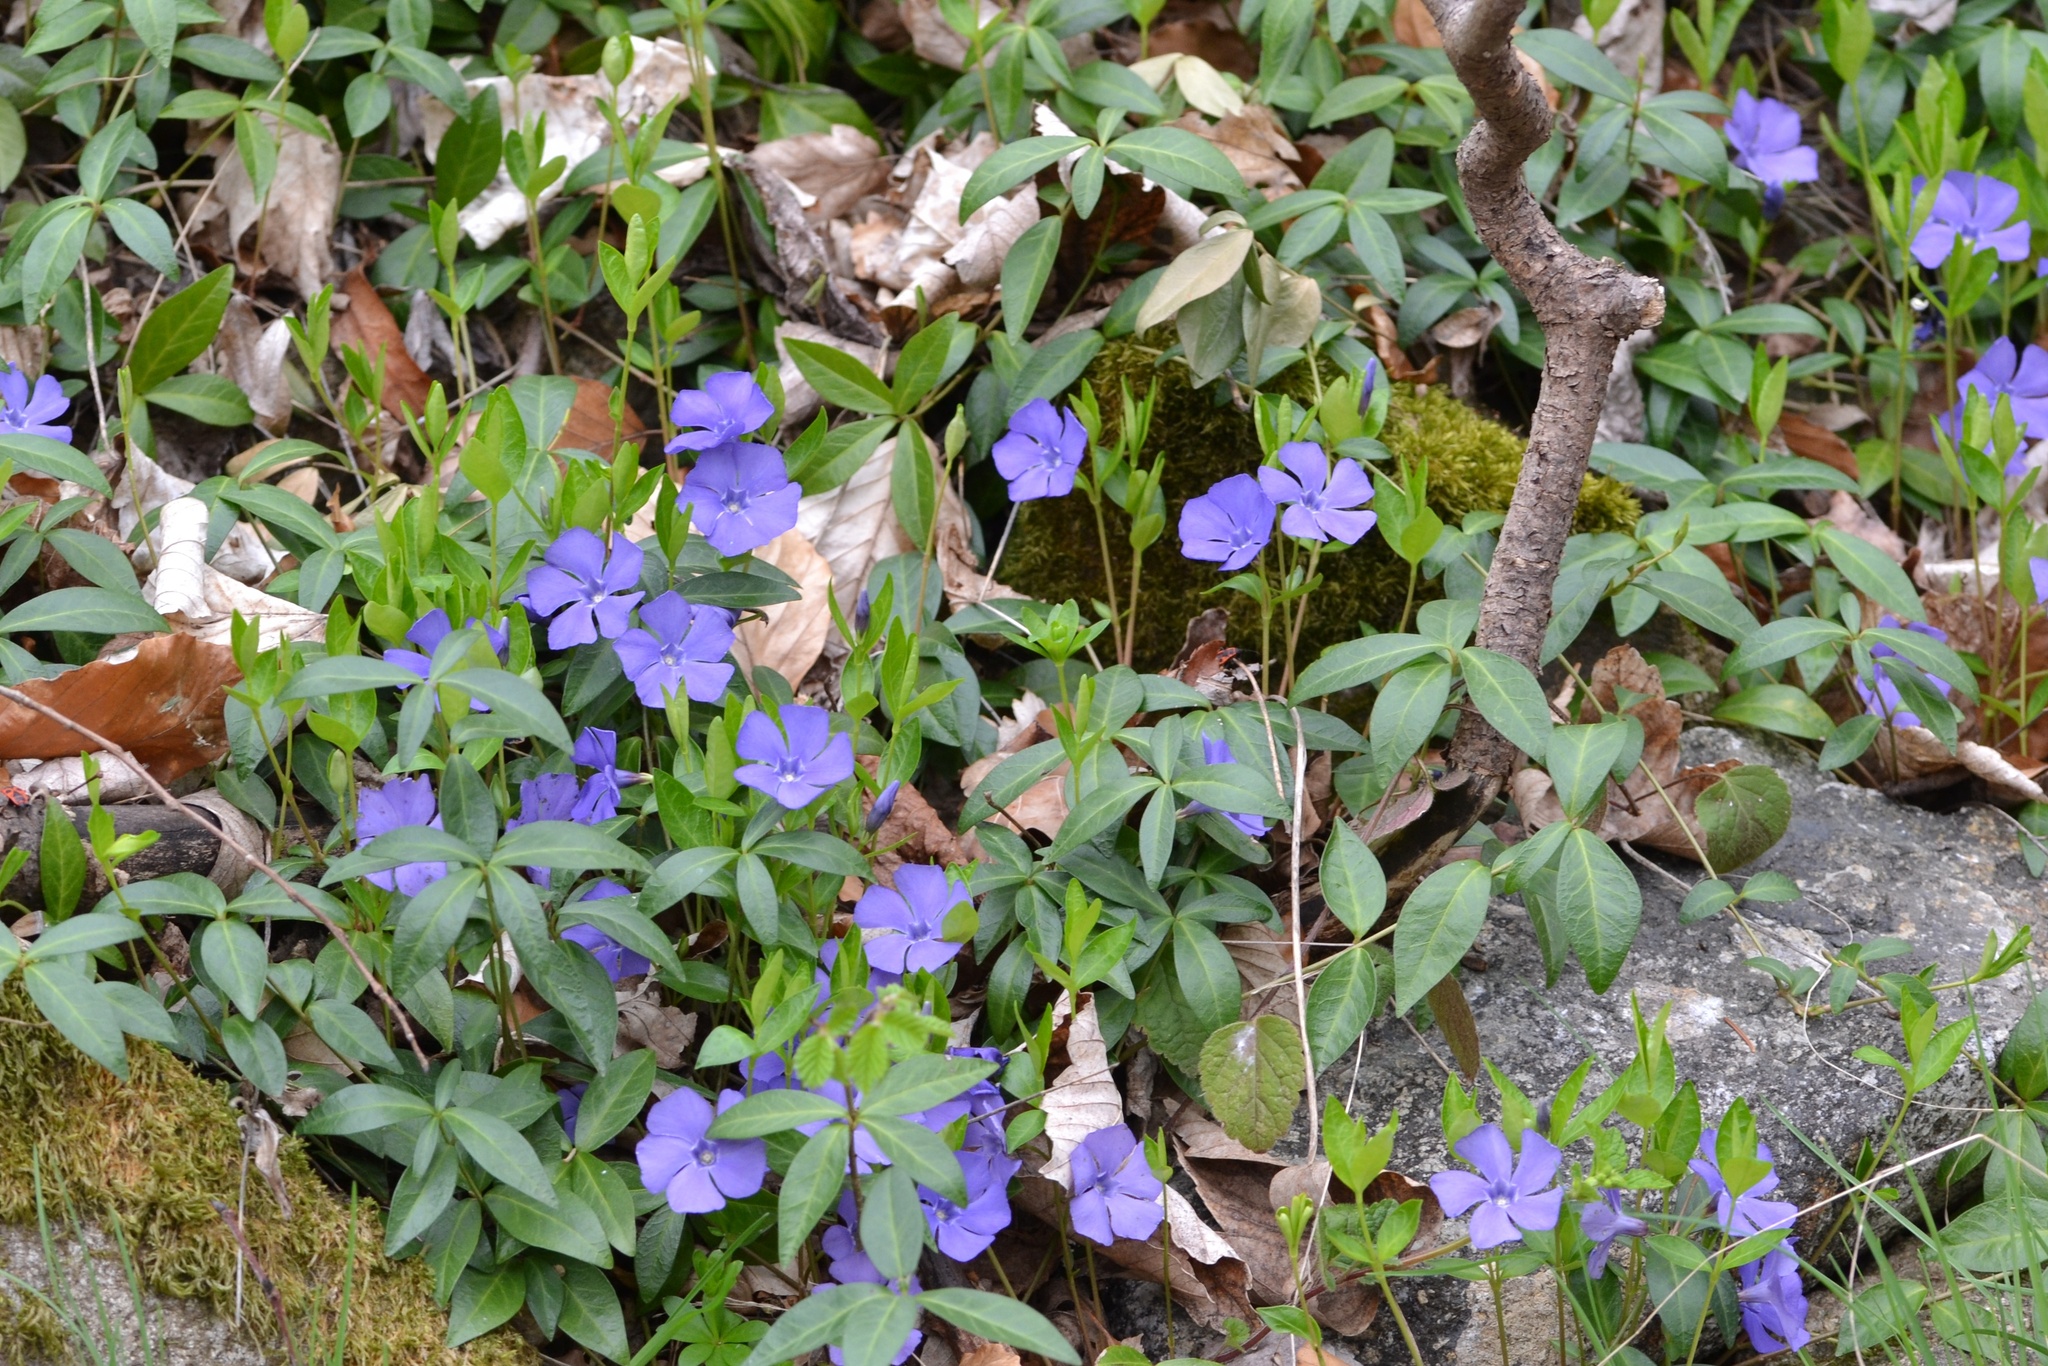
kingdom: Plantae
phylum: Tracheophyta
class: Magnoliopsida
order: Gentianales
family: Apocynaceae
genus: Vinca
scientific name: Vinca minor
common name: Lesser periwinkle
